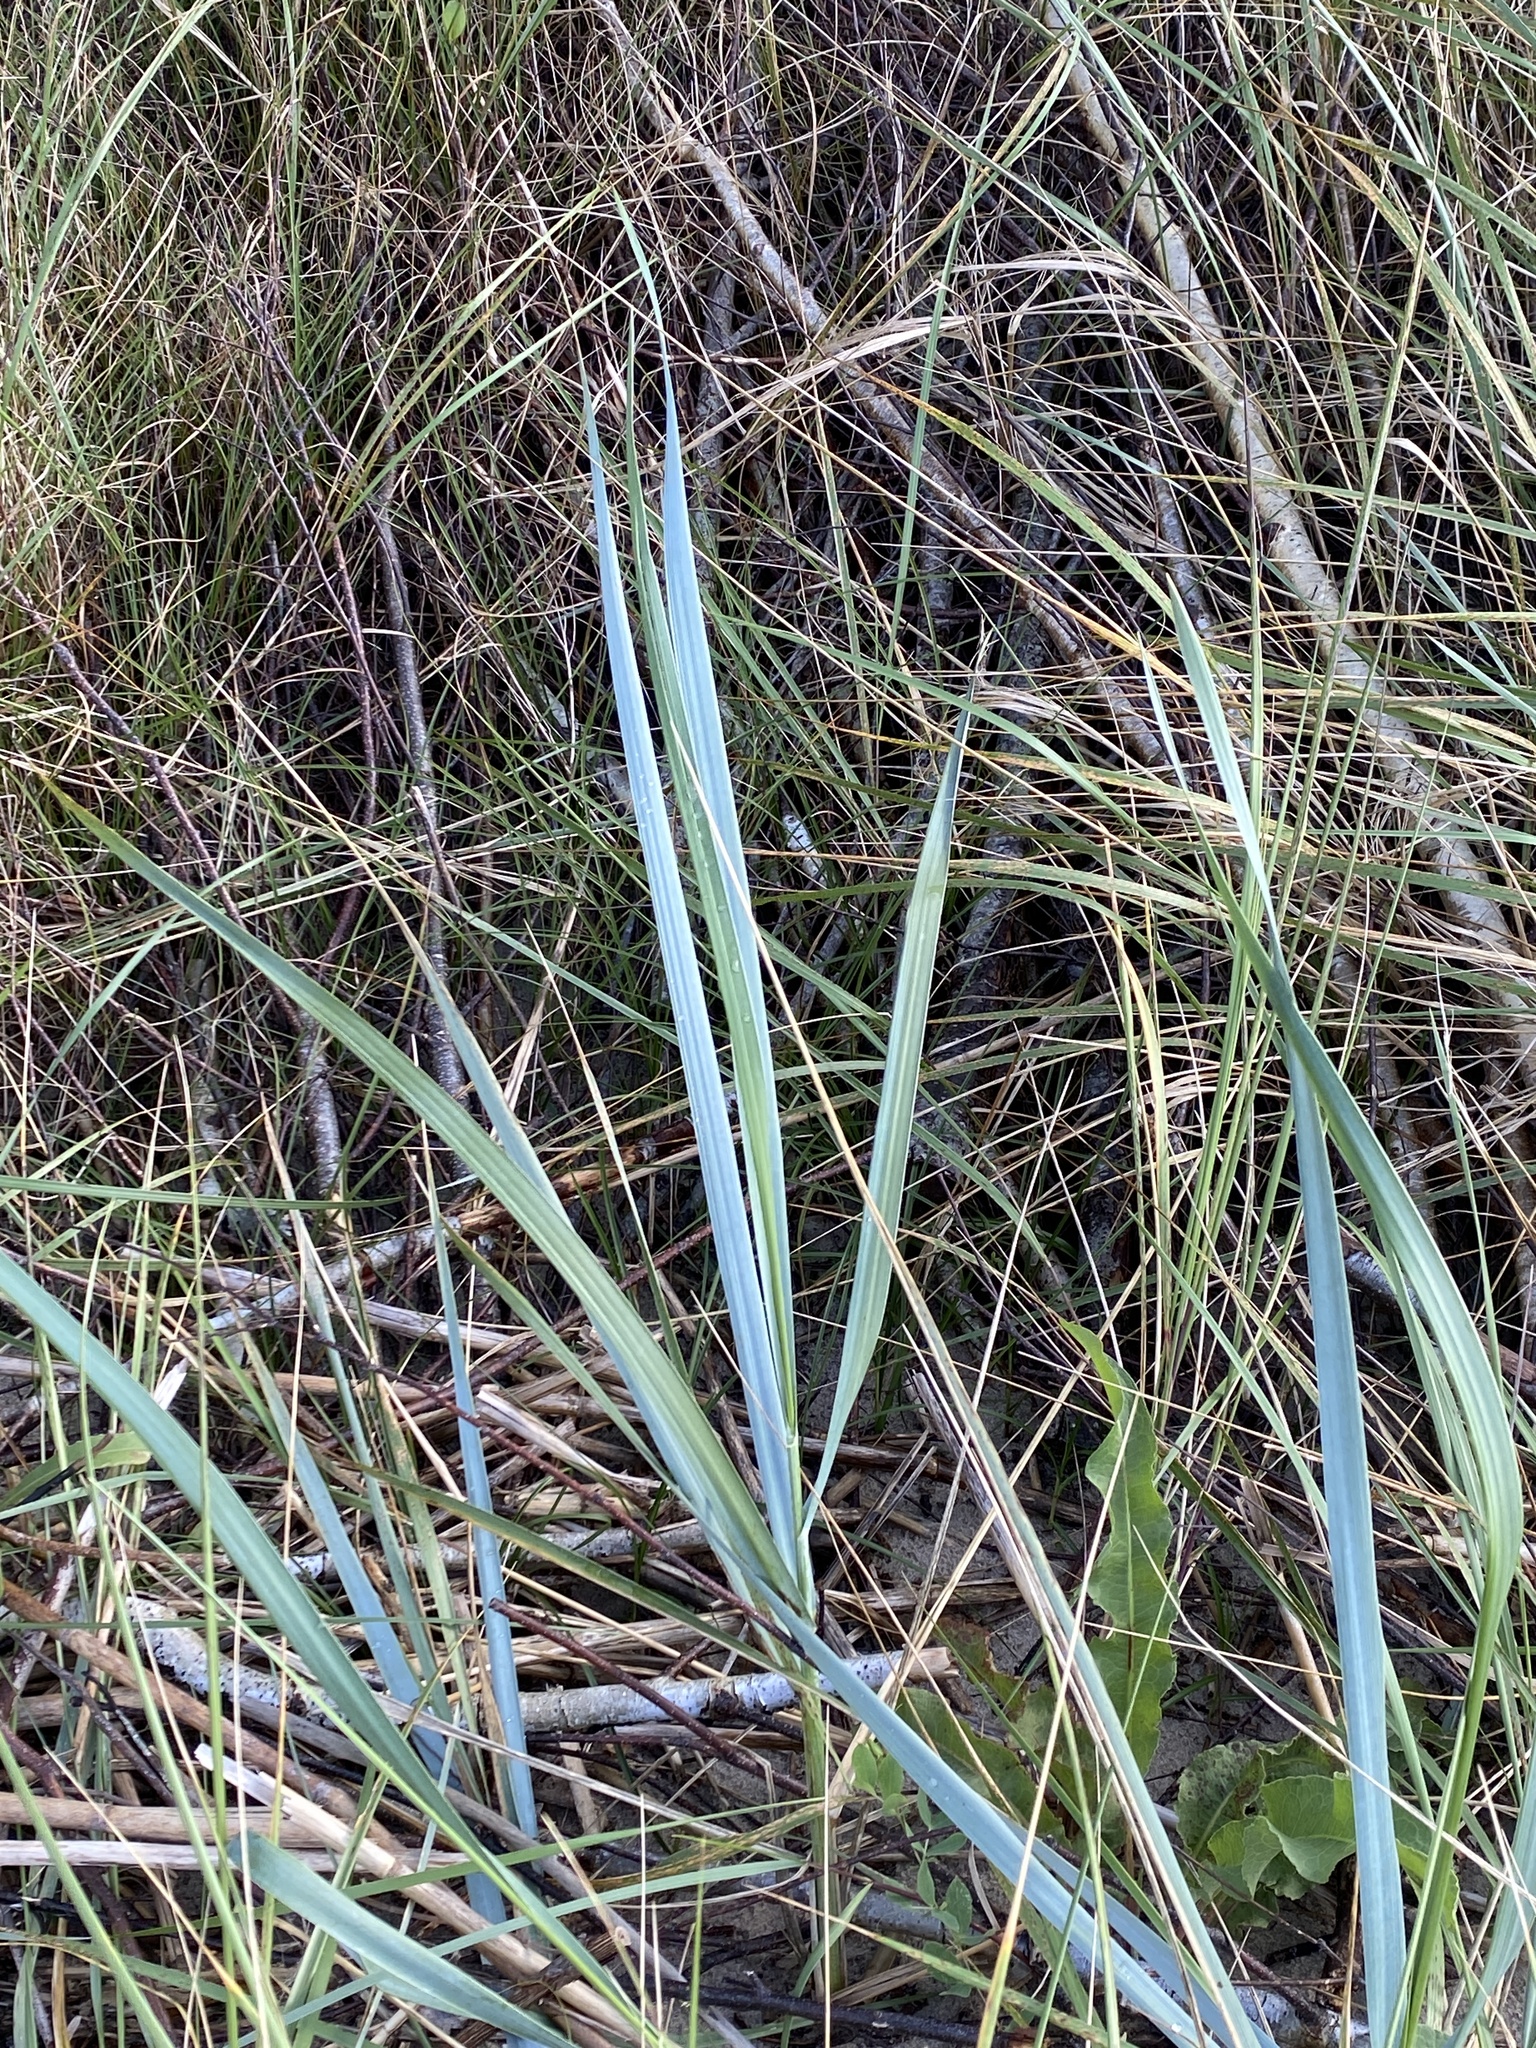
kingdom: Plantae
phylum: Tracheophyta
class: Liliopsida
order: Poales
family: Poaceae
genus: Leymus
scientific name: Leymus arenarius
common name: Lyme-grass
